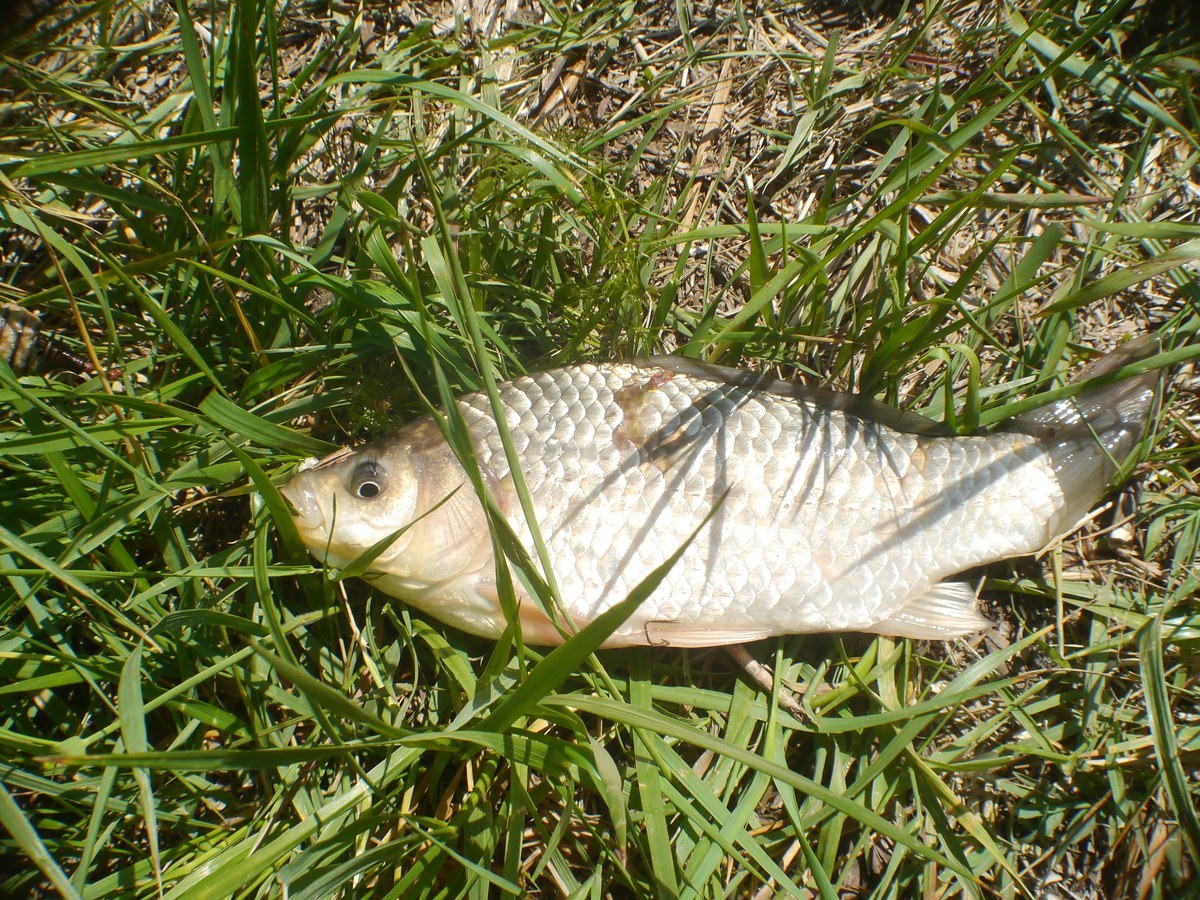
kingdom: Animalia
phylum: Chordata
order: Cypriniformes
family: Cyprinidae
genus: Carassius
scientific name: Carassius gibelio
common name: Prussian carp
